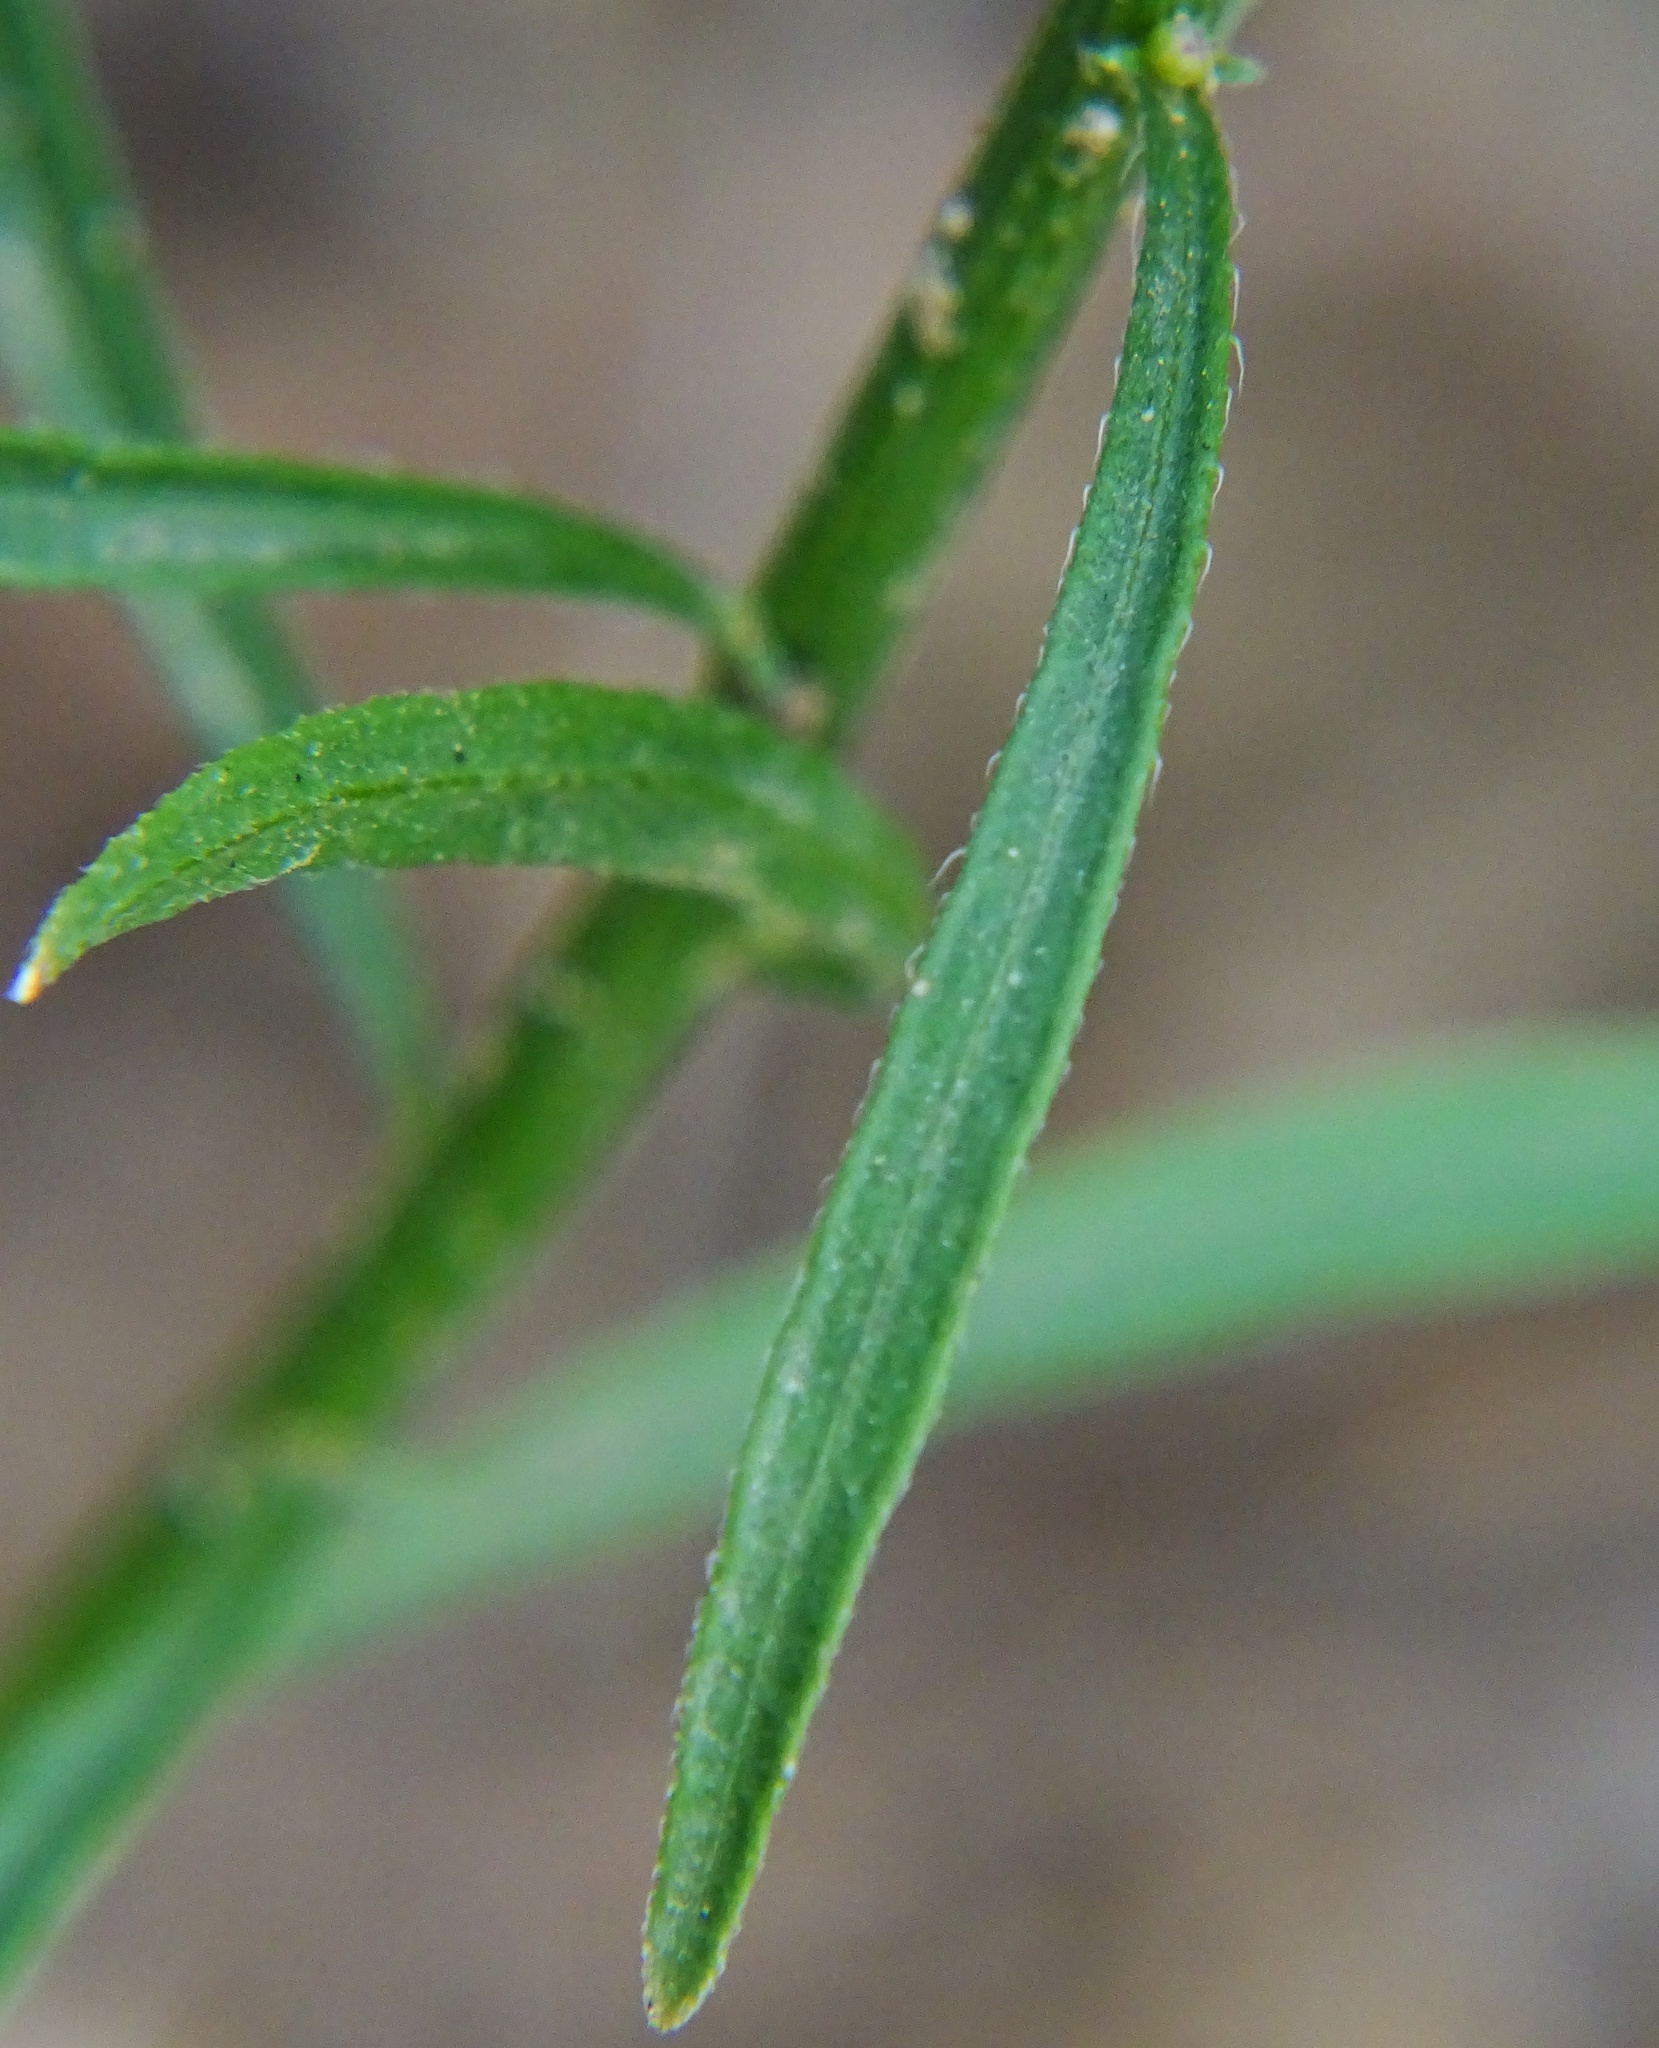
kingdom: Plantae
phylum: Tracheophyta
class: Magnoliopsida
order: Asterales
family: Asteraceae
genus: Erigeron
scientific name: Erigeron canadensis
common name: Canadian fleabane
